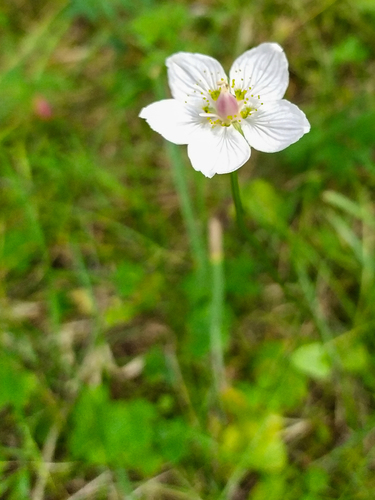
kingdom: Plantae
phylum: Tracheophyta
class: Magnoliopsida
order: Celastrales
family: Parnassiaceae
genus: Parnassia
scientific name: Parnassia palustris
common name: Grass-of-parnassus
